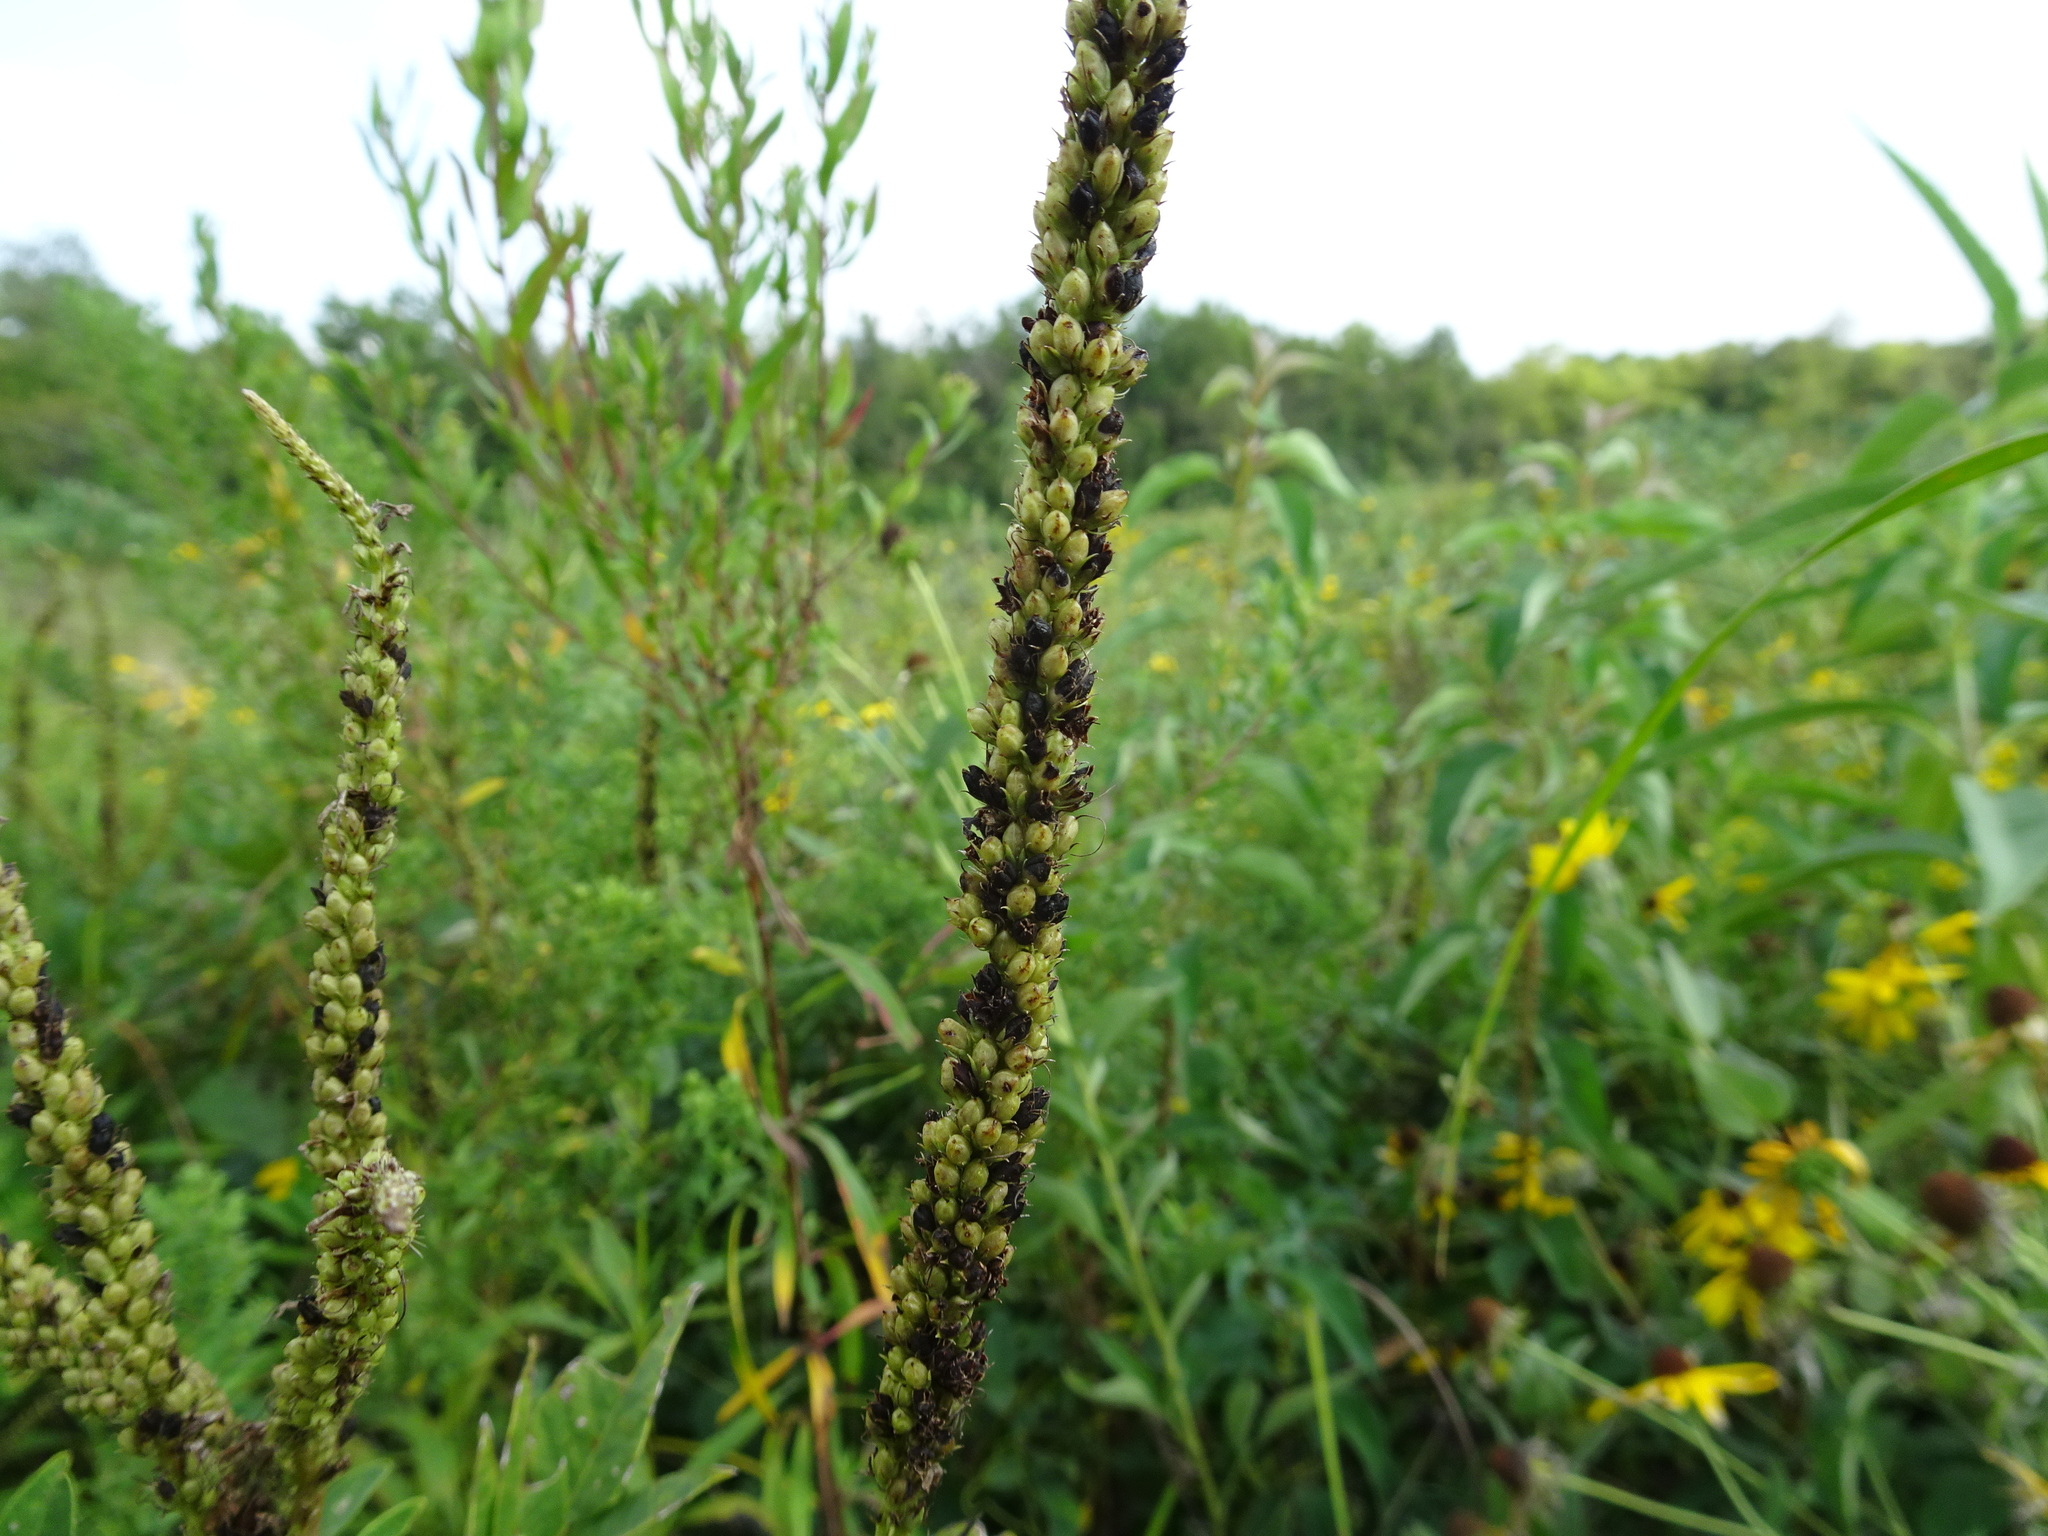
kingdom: Plantae
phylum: Tracheophyta
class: Magnoliopsida
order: Lamiales
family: Plantaginaceae
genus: Veronicastrum
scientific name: Veronicastrum virginicum
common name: Blackroot
